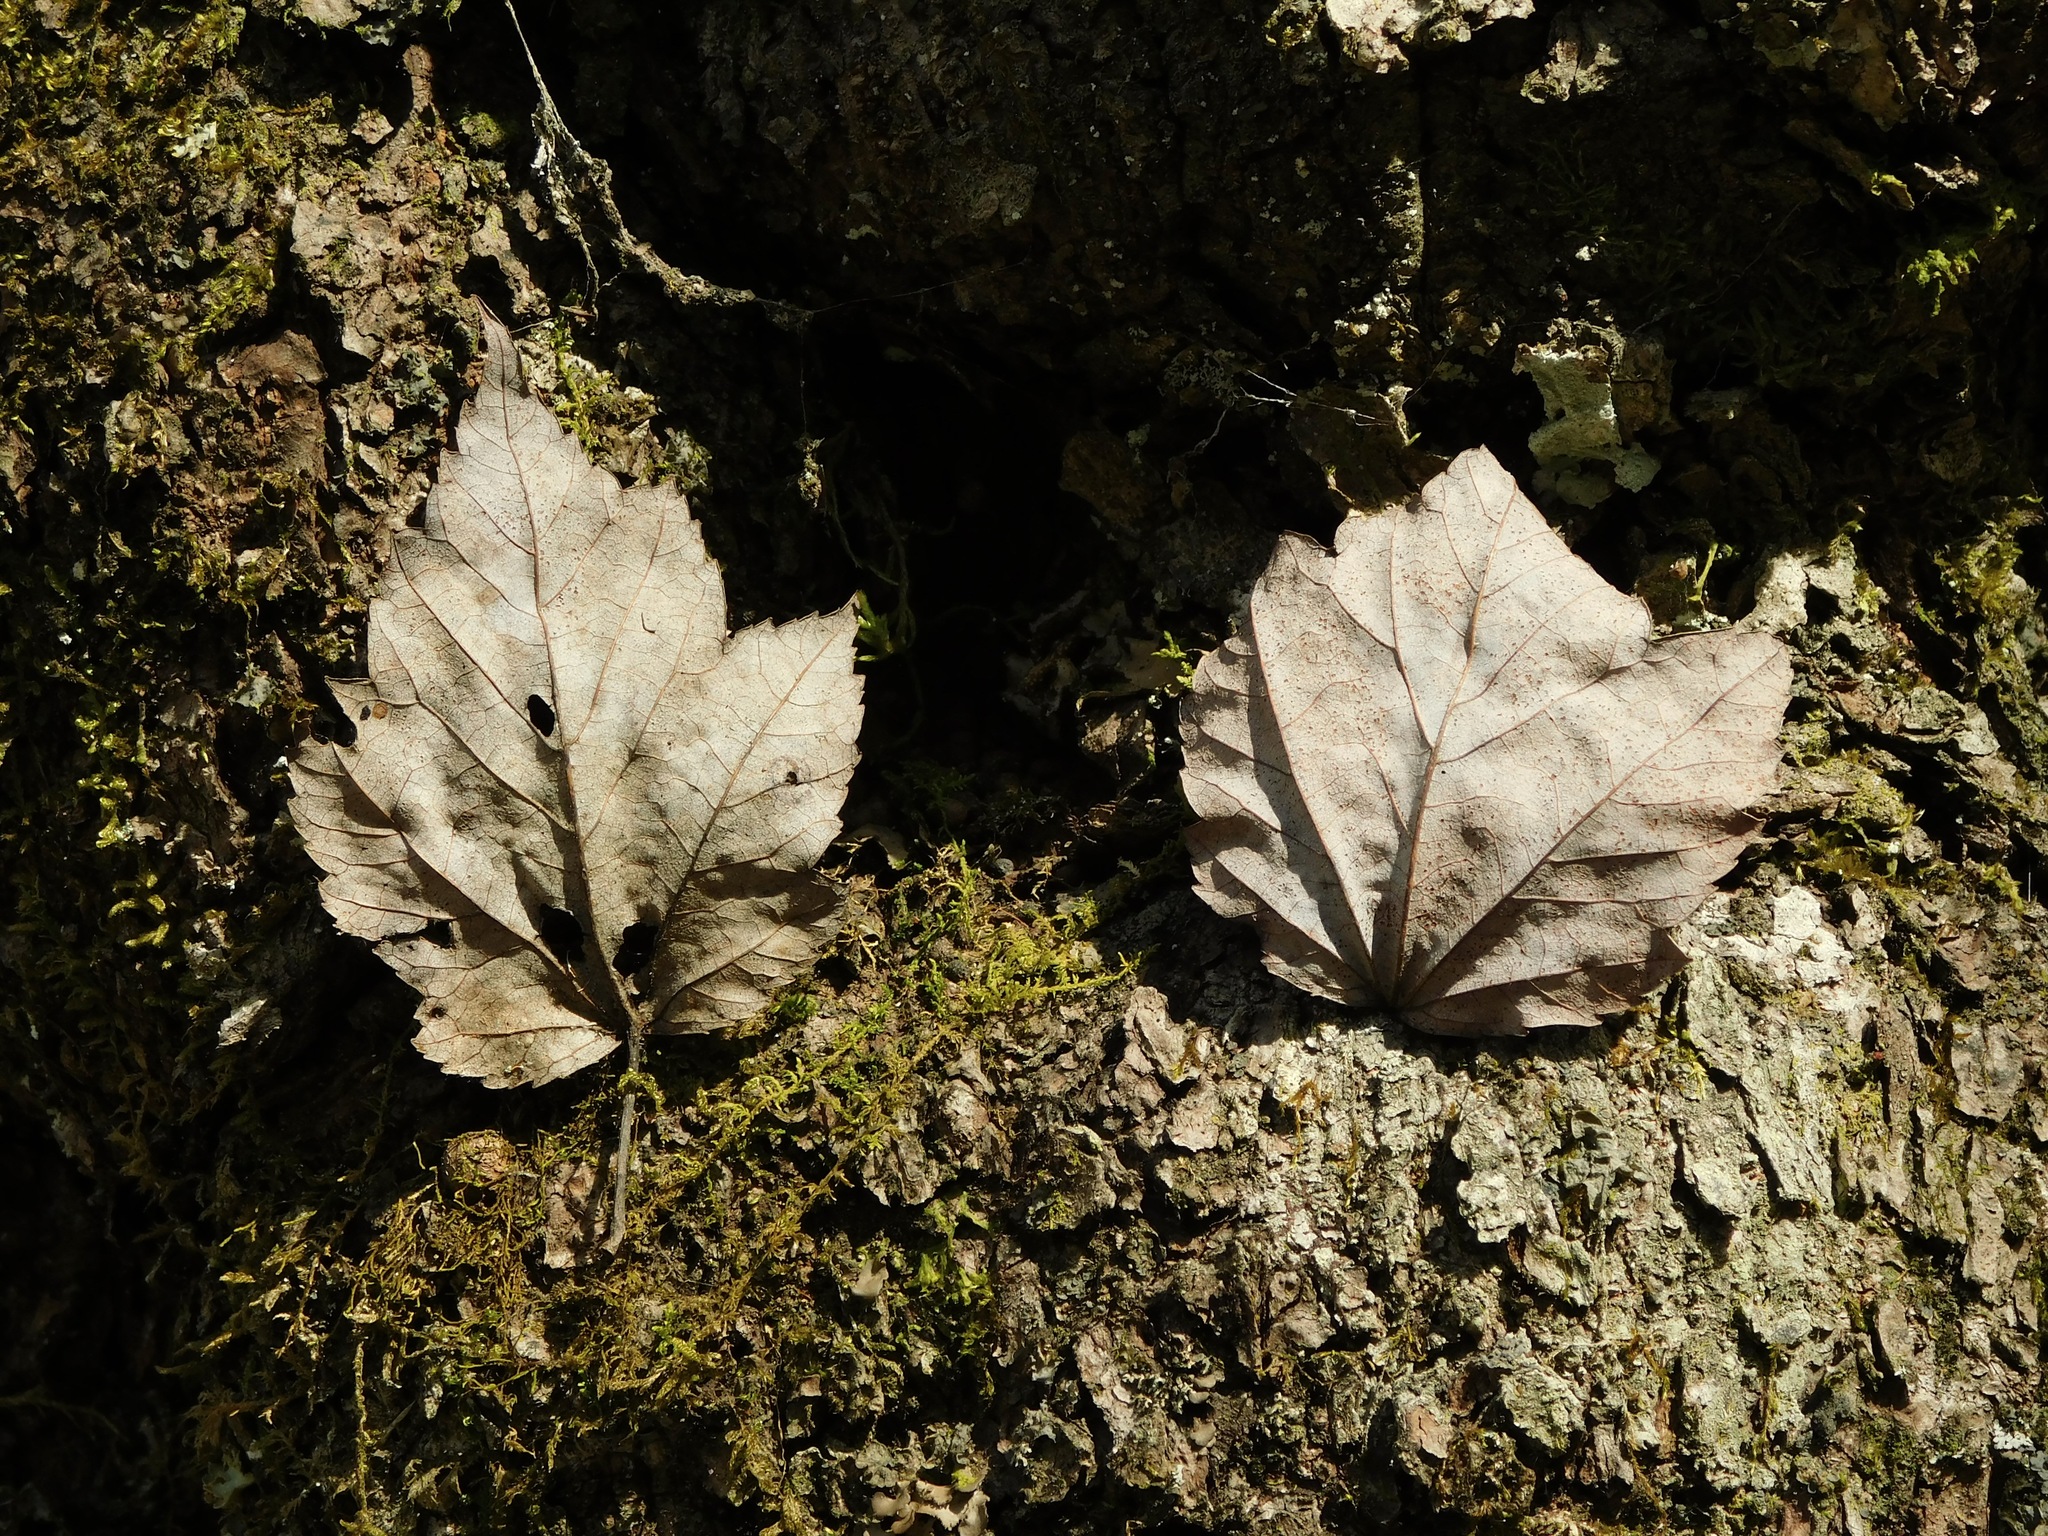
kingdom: Plantae
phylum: Tracheophyta
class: Magnoliopsida
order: Sapindales
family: Sapindaceae
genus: Acer
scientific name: Acer rubrum
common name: Red maple
